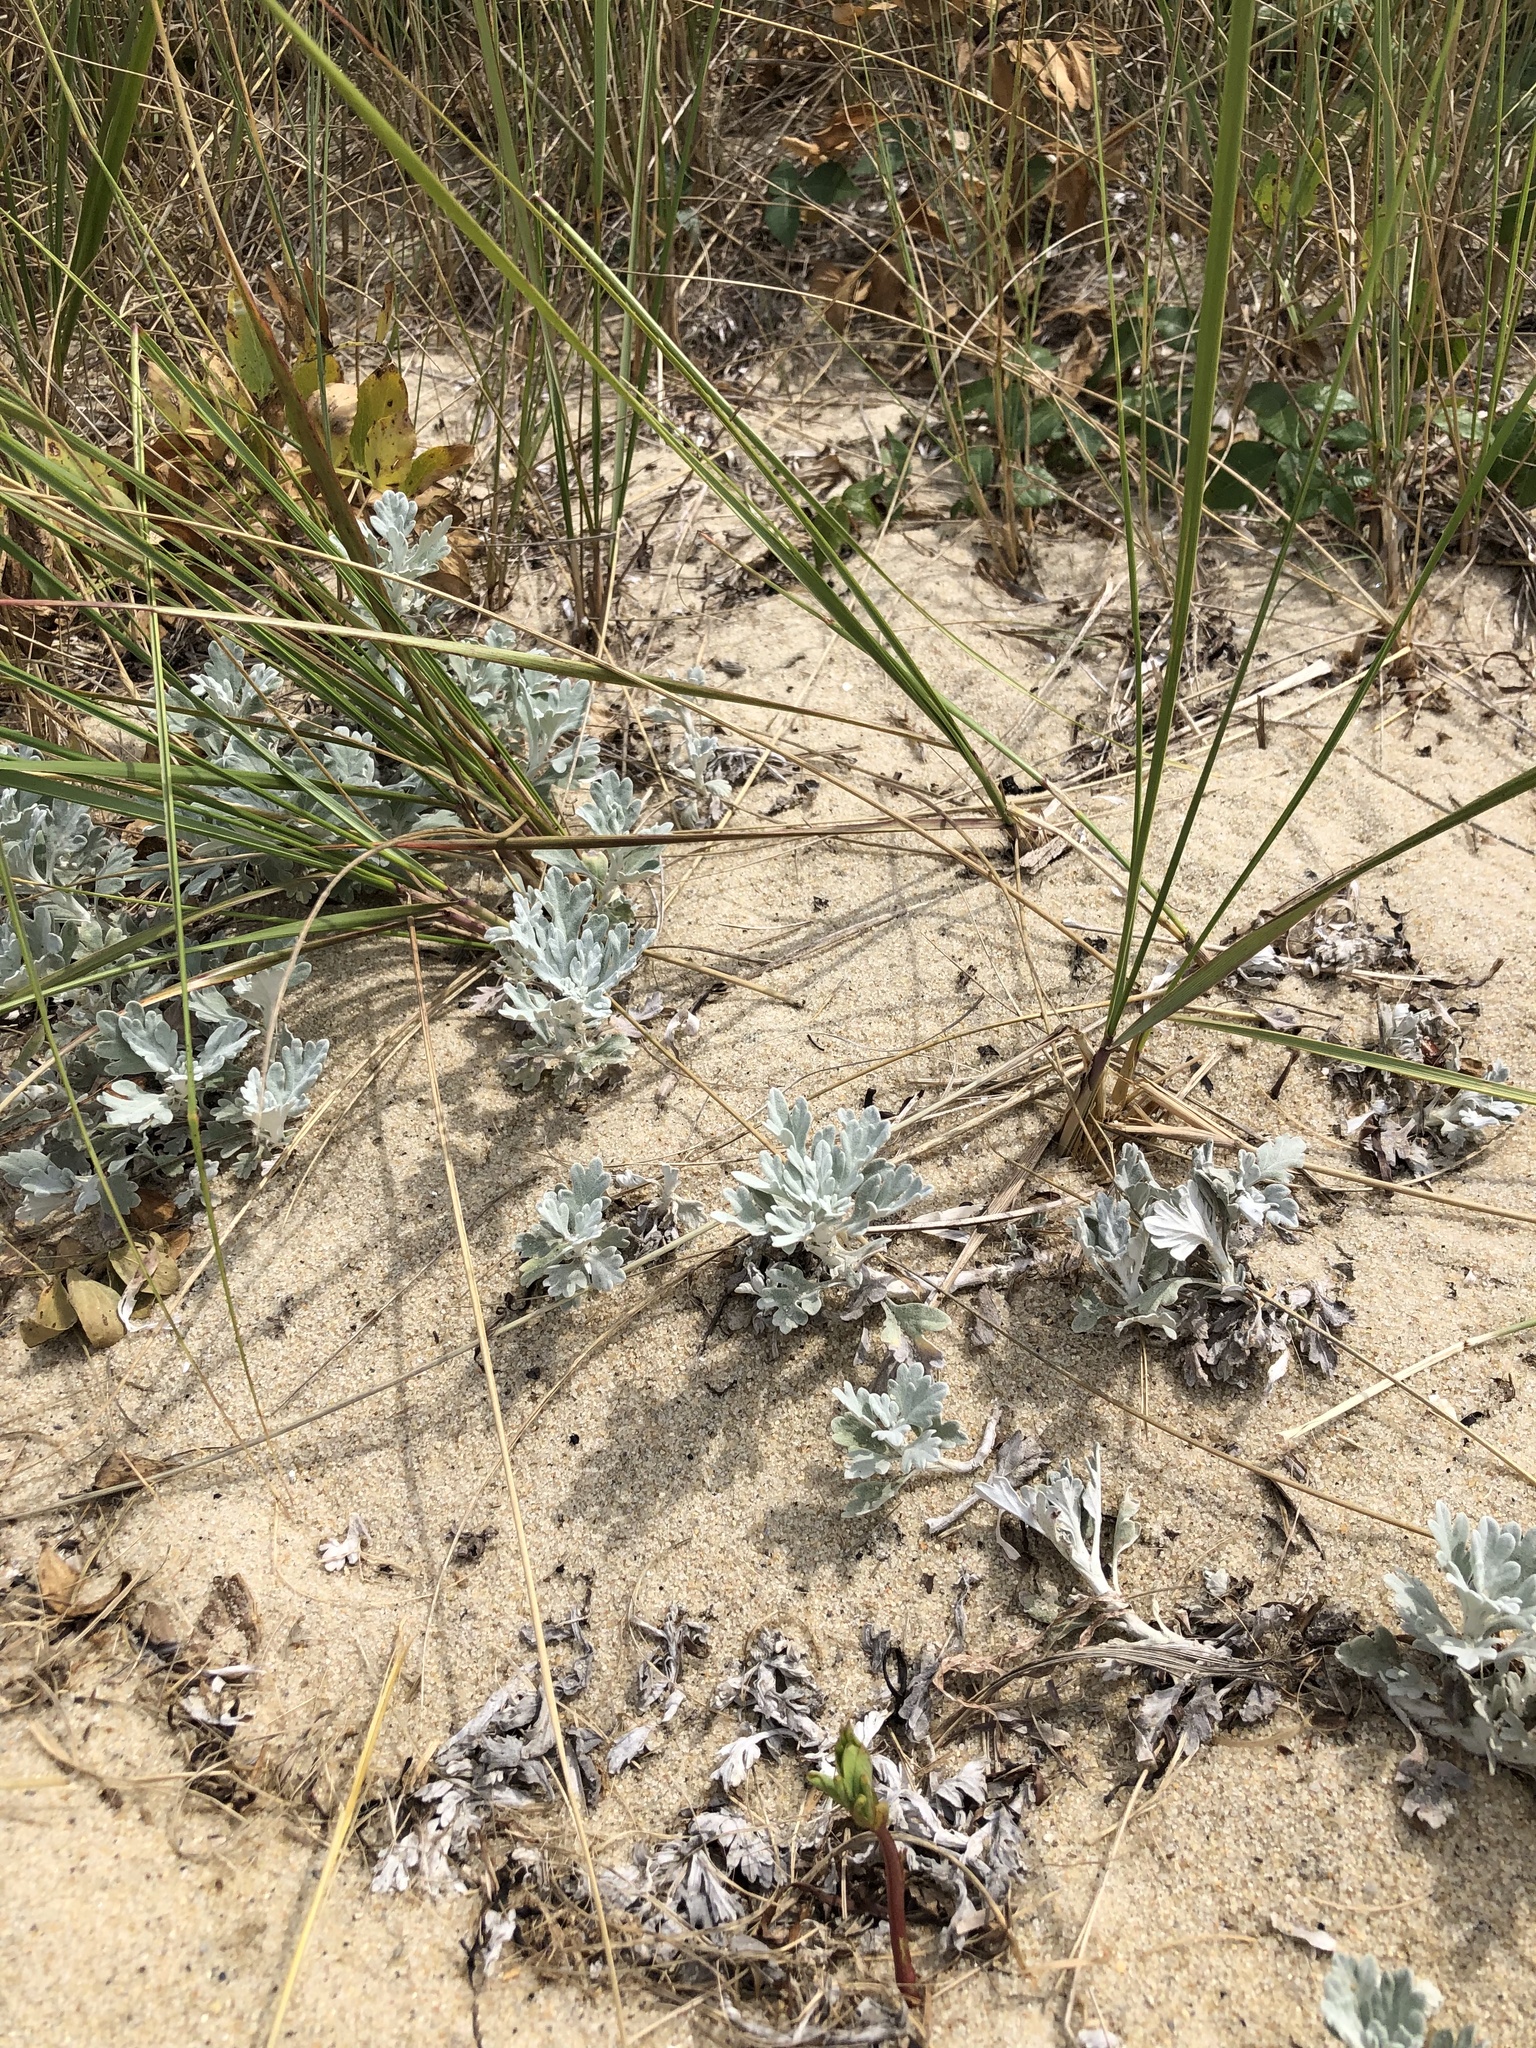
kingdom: Plantae
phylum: Tracheophyta
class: Magnoliopsida
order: Asterales
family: Asteraceae
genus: Artemisia
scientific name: Artemisia stelleriana
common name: Beach wormwood
